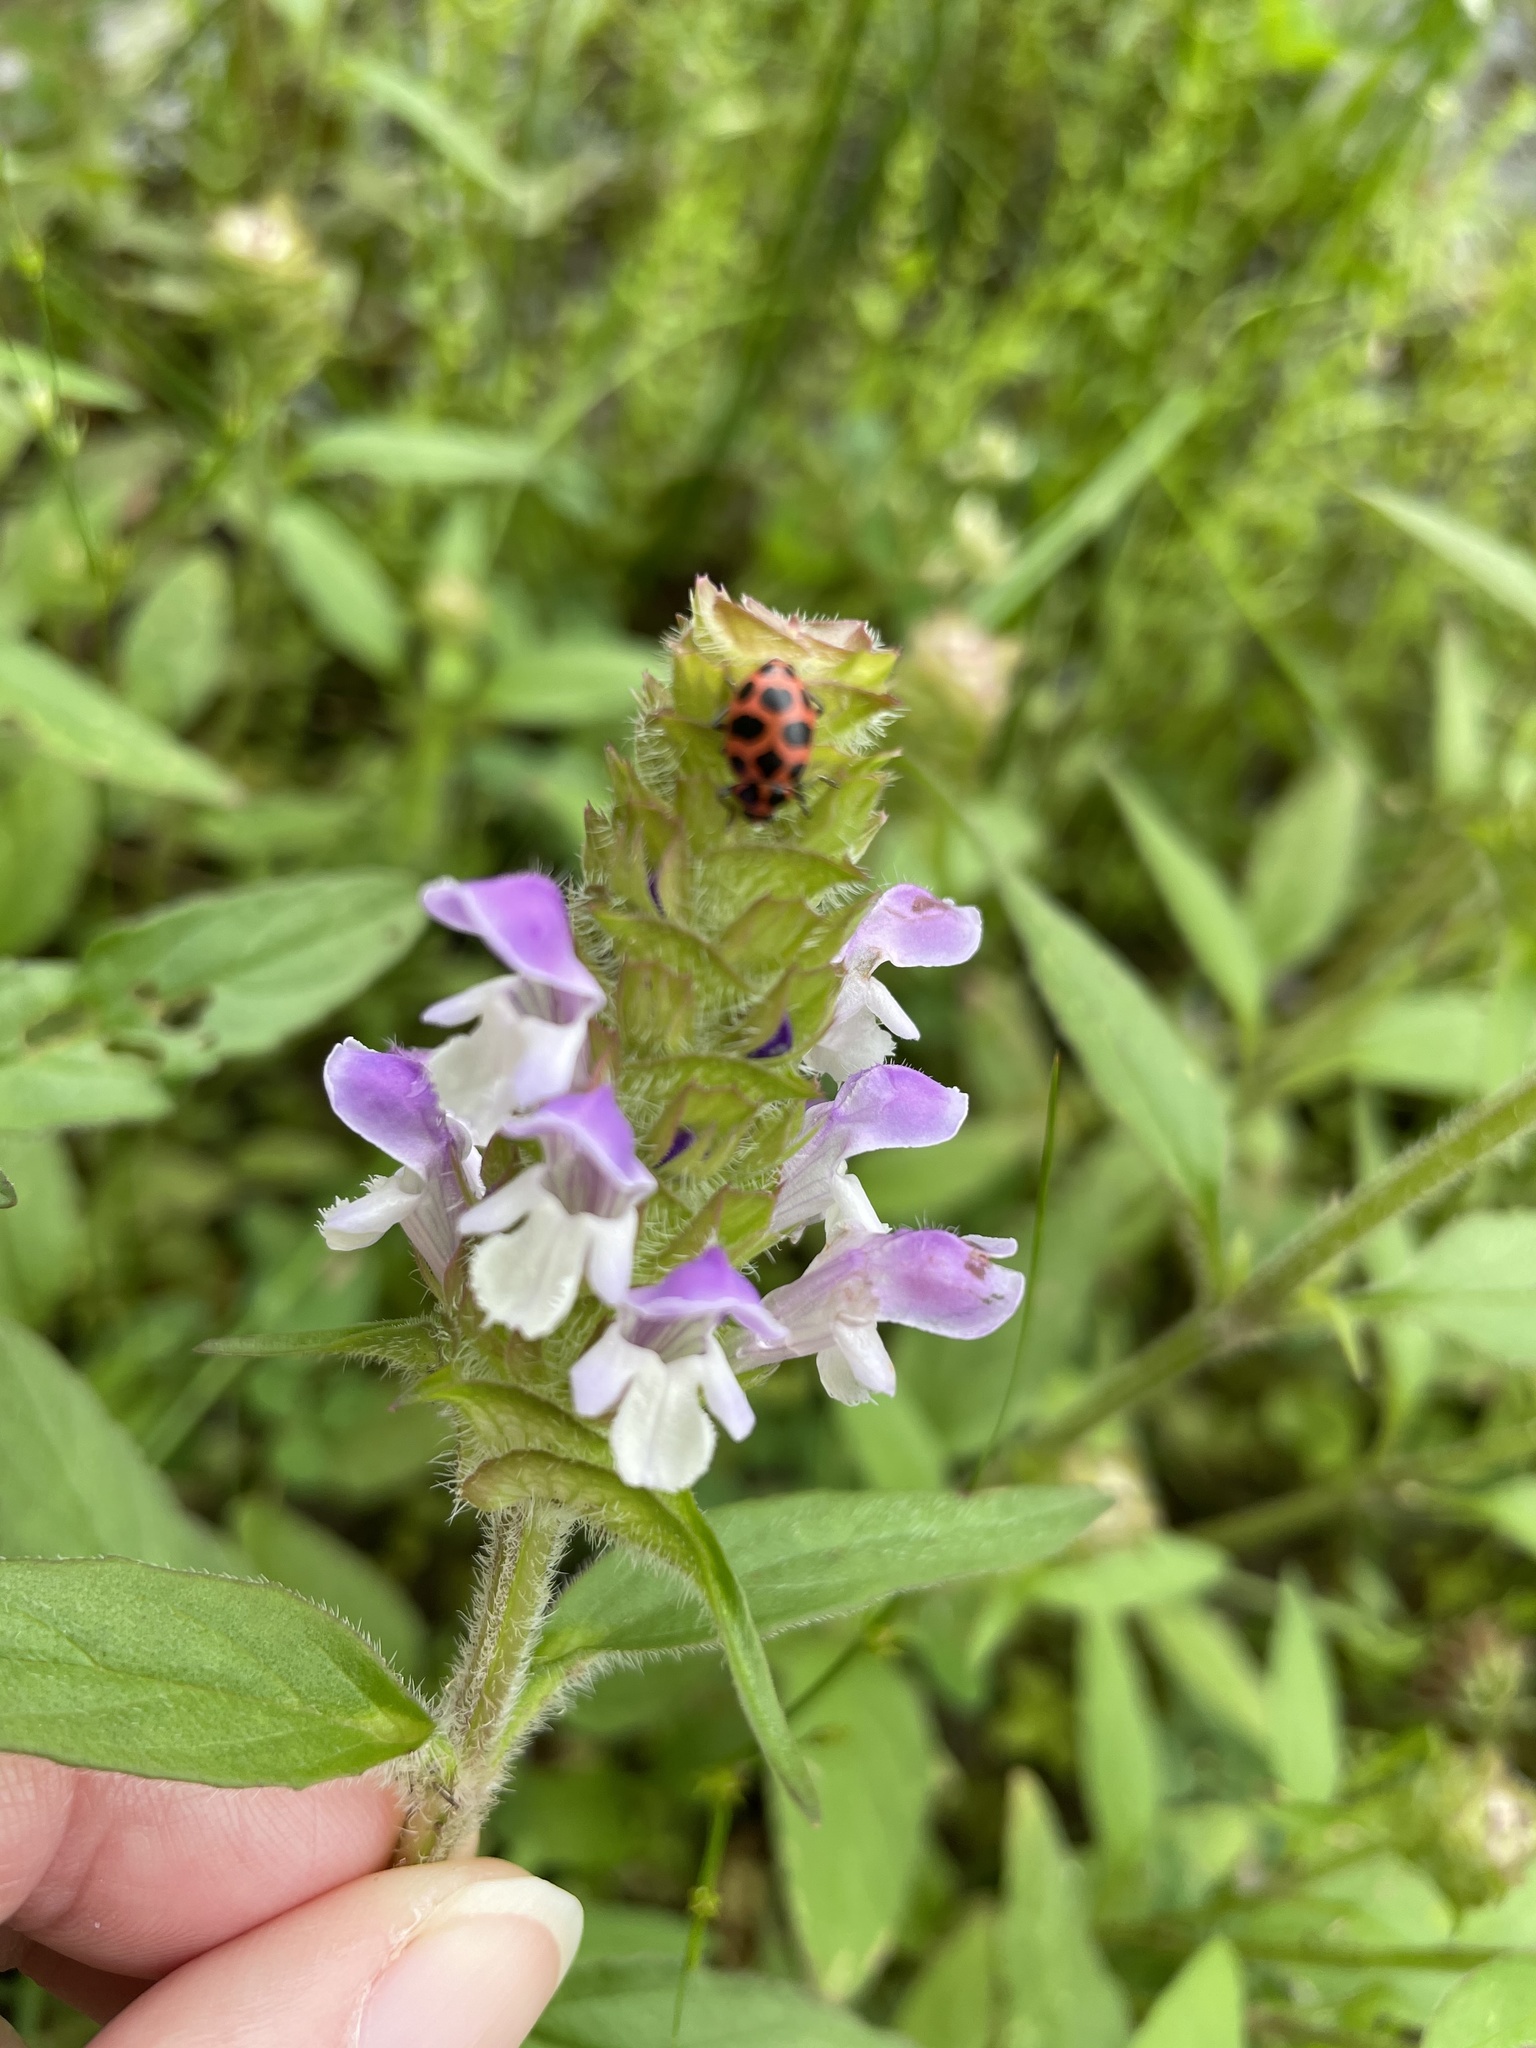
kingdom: Animalia
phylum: Arthropoda
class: Insecta
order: Coleoptera
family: Coccinellidae
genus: Coleomegilla
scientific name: Coleomegilla maculata
